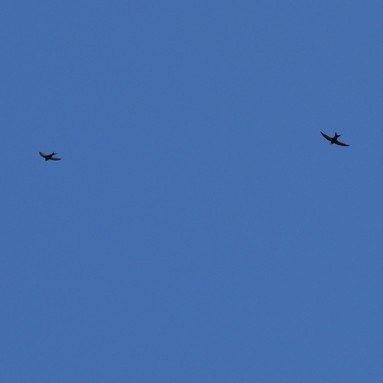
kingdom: Animalia
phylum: Chordata
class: Aves
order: Apodiformes
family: Apodidae
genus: Apus
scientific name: Apus apus
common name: Common swift
